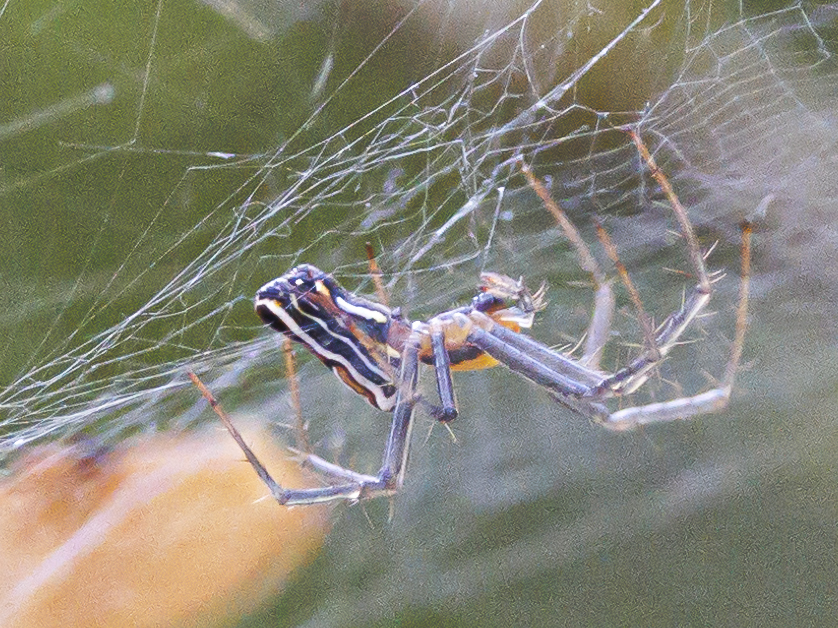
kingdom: Animalia
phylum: Arthropoda
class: Arachnida
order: Araneae
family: Araneidae
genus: Mecynogea
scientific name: Mecynogea lemniscata
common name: Orb weavers
